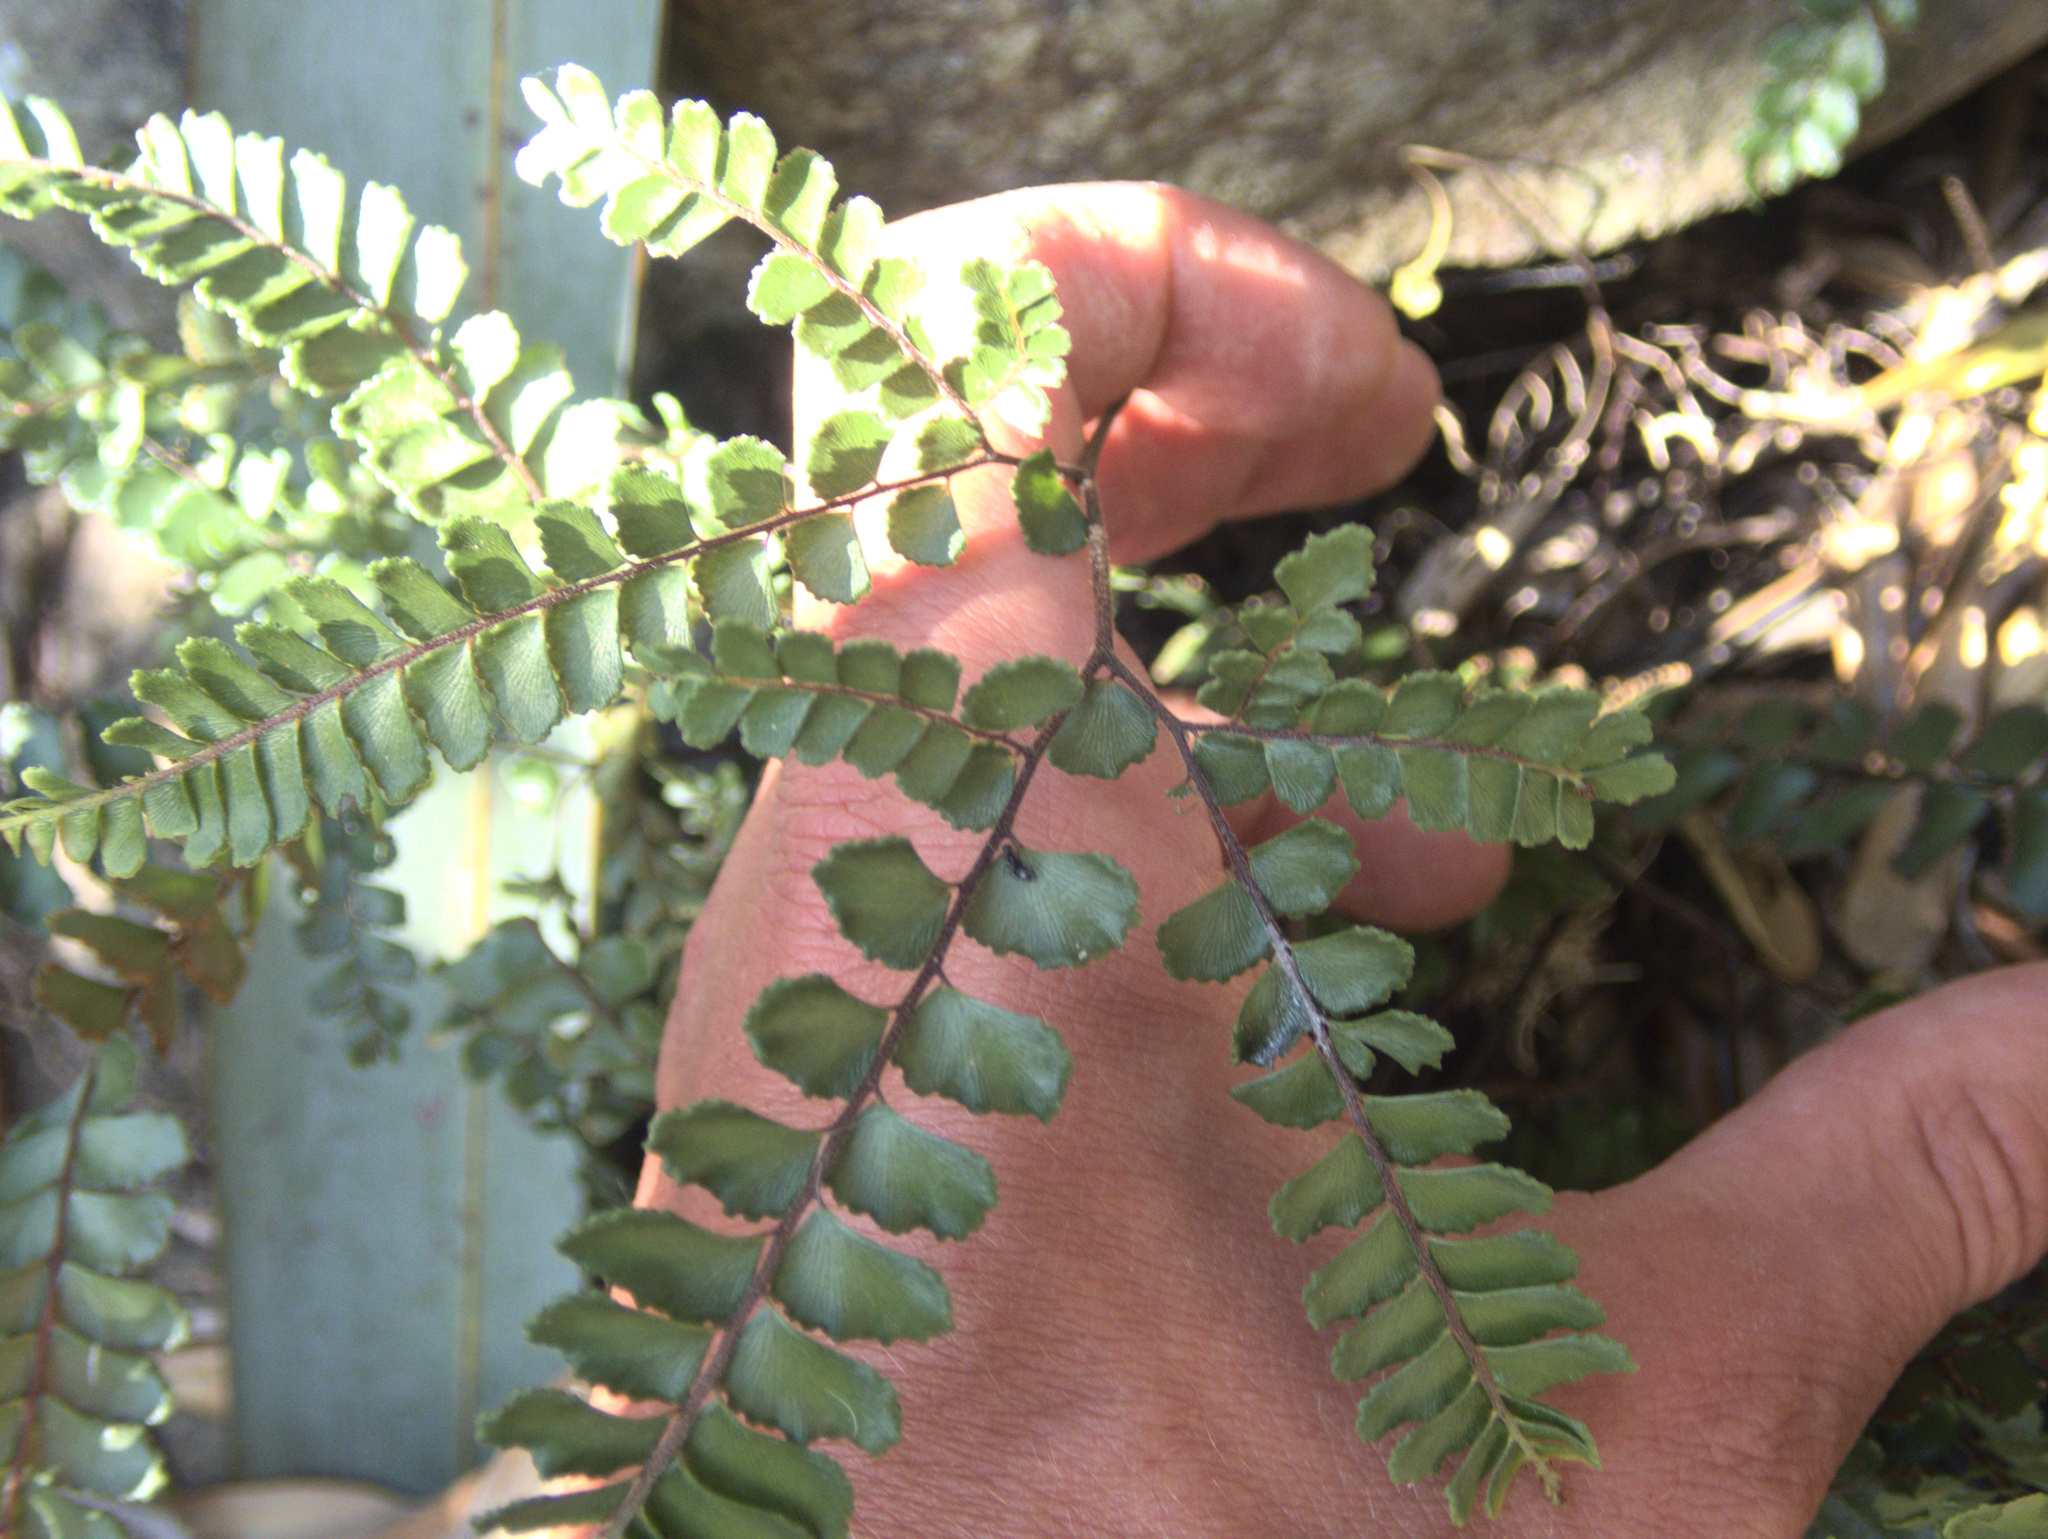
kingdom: Plantae
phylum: Tracheophyta
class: Polypodiopsida
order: Polypodiales
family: Pteridaceae
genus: Adiantum
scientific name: Adiantum hispidulum
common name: Rough maidenhair
